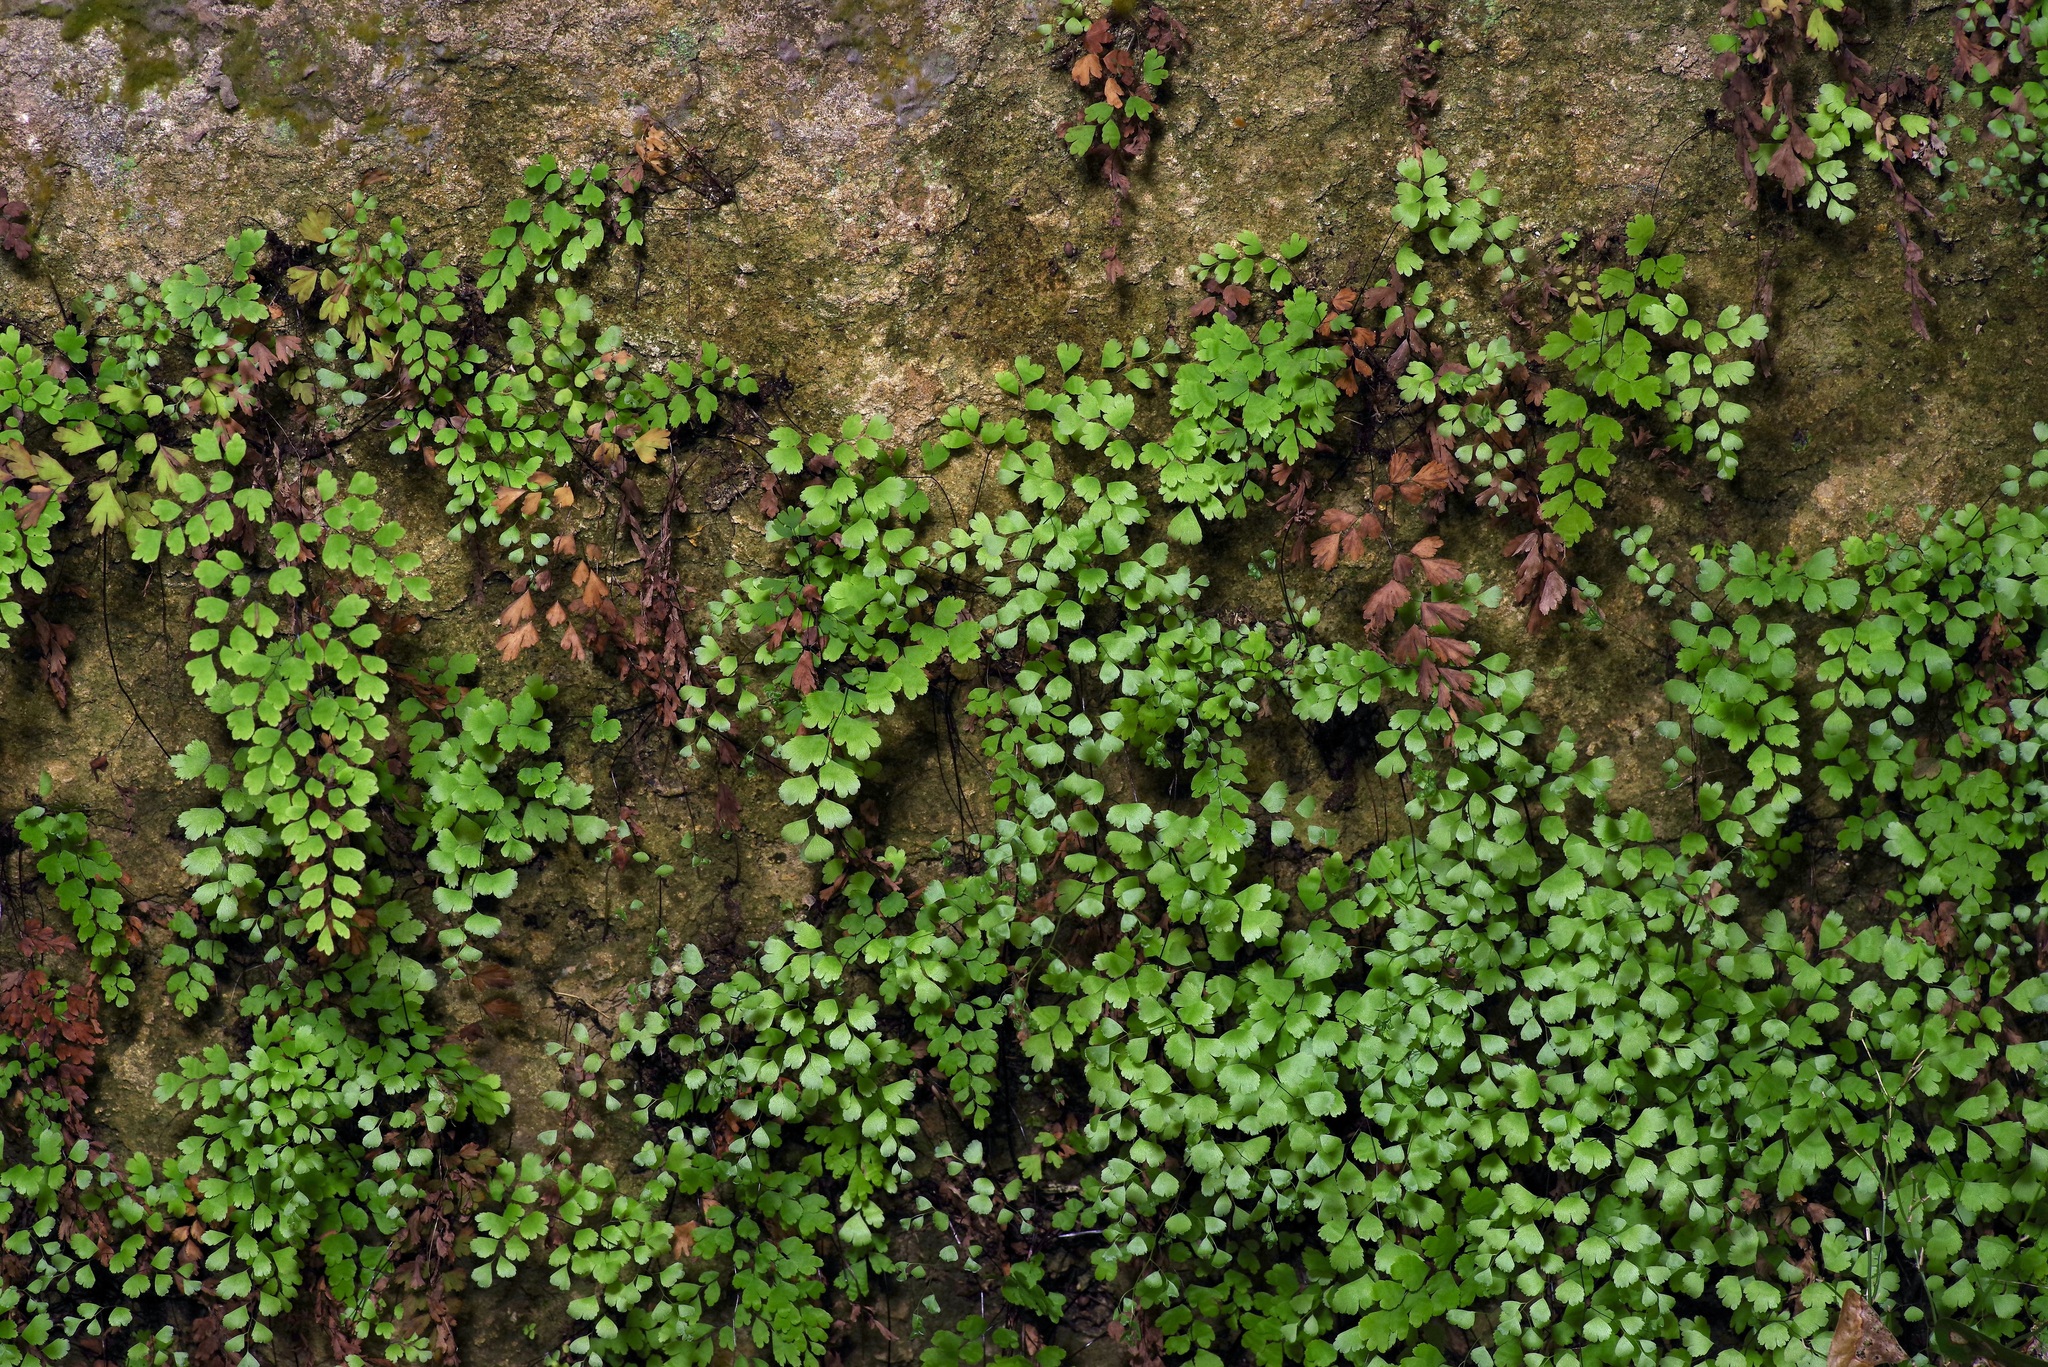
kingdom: Plantae
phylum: Tracheophyta
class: Polypodiopsida
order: Polypodiales
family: Pteridaceae
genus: Adiantum
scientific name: Adiantum capillus-veneris
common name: Maidenhair fern
